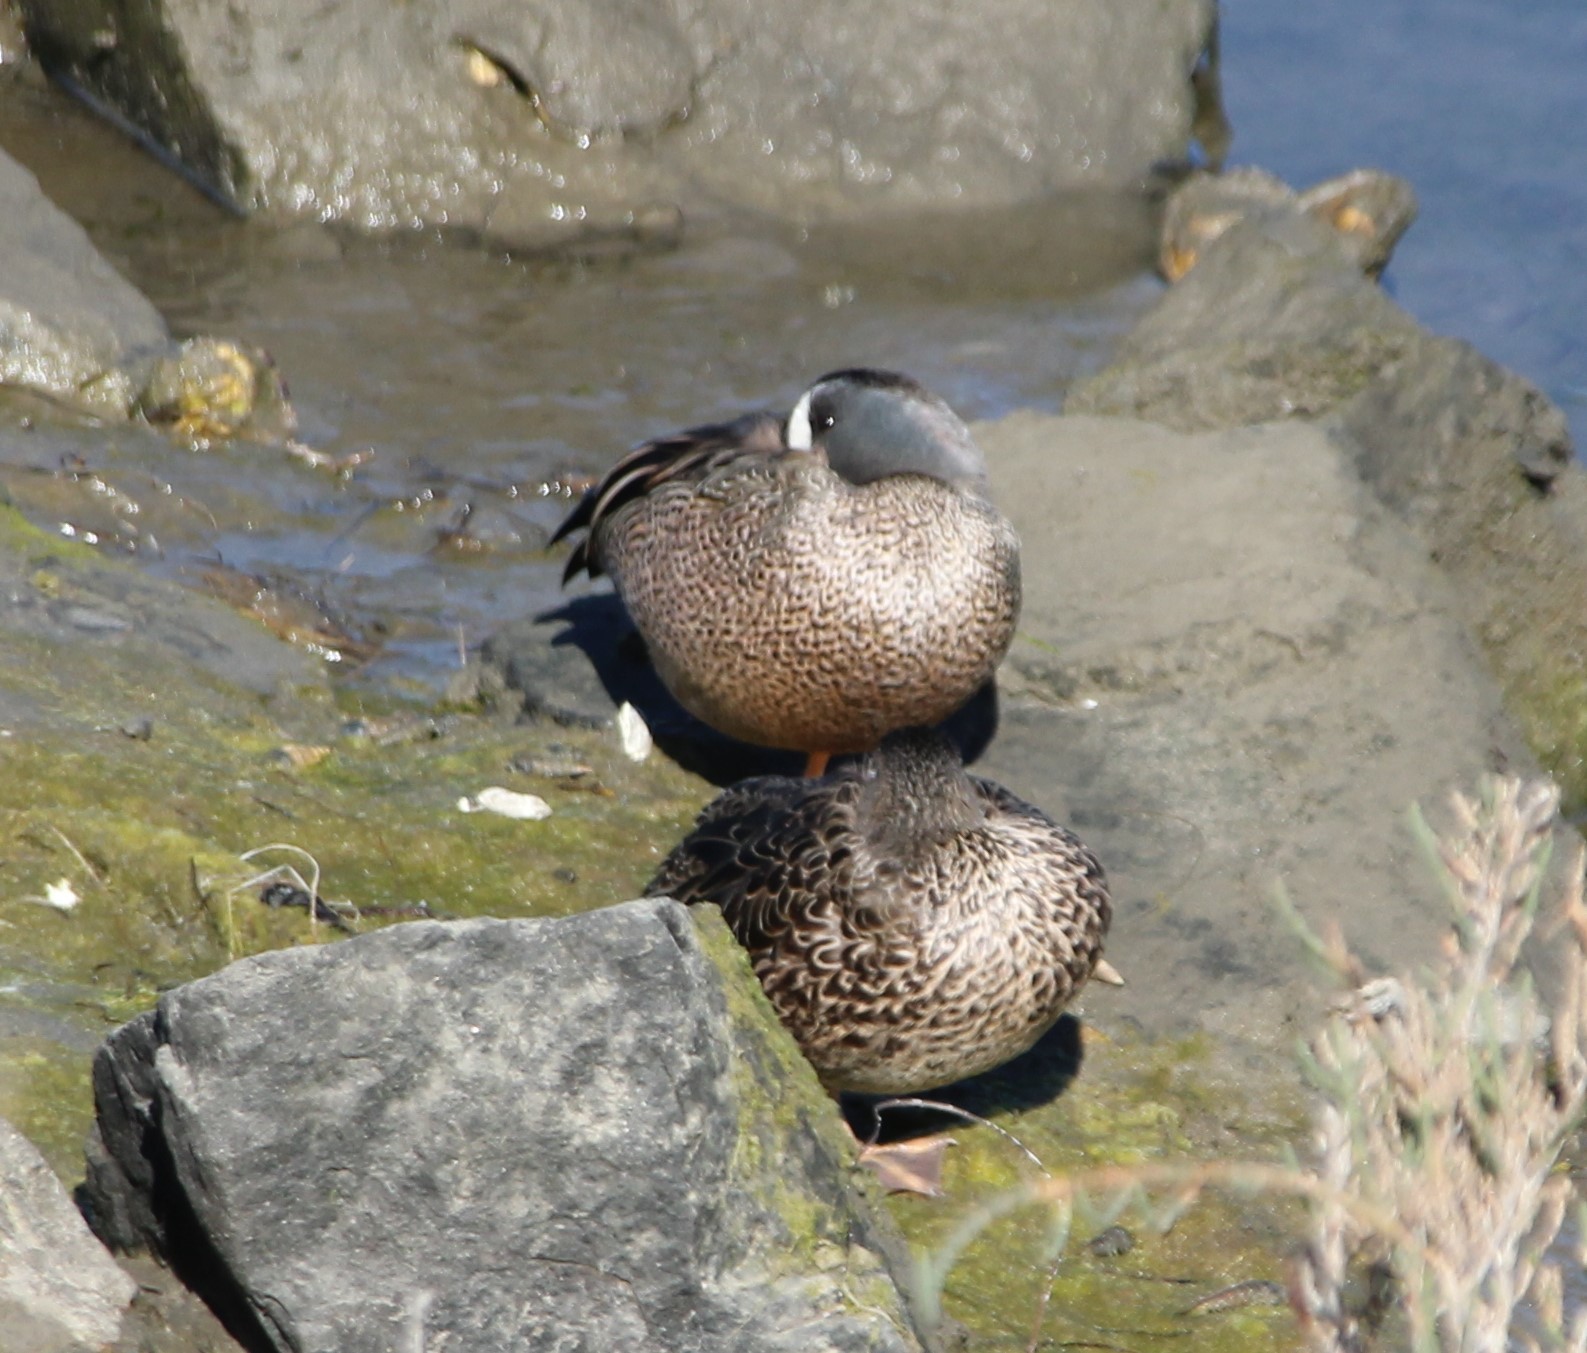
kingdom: Animalia
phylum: Chordata
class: Aves
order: Anseriformes
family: Anatidae
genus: Spatula
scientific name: Spatula discors
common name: Blue-winged teal
